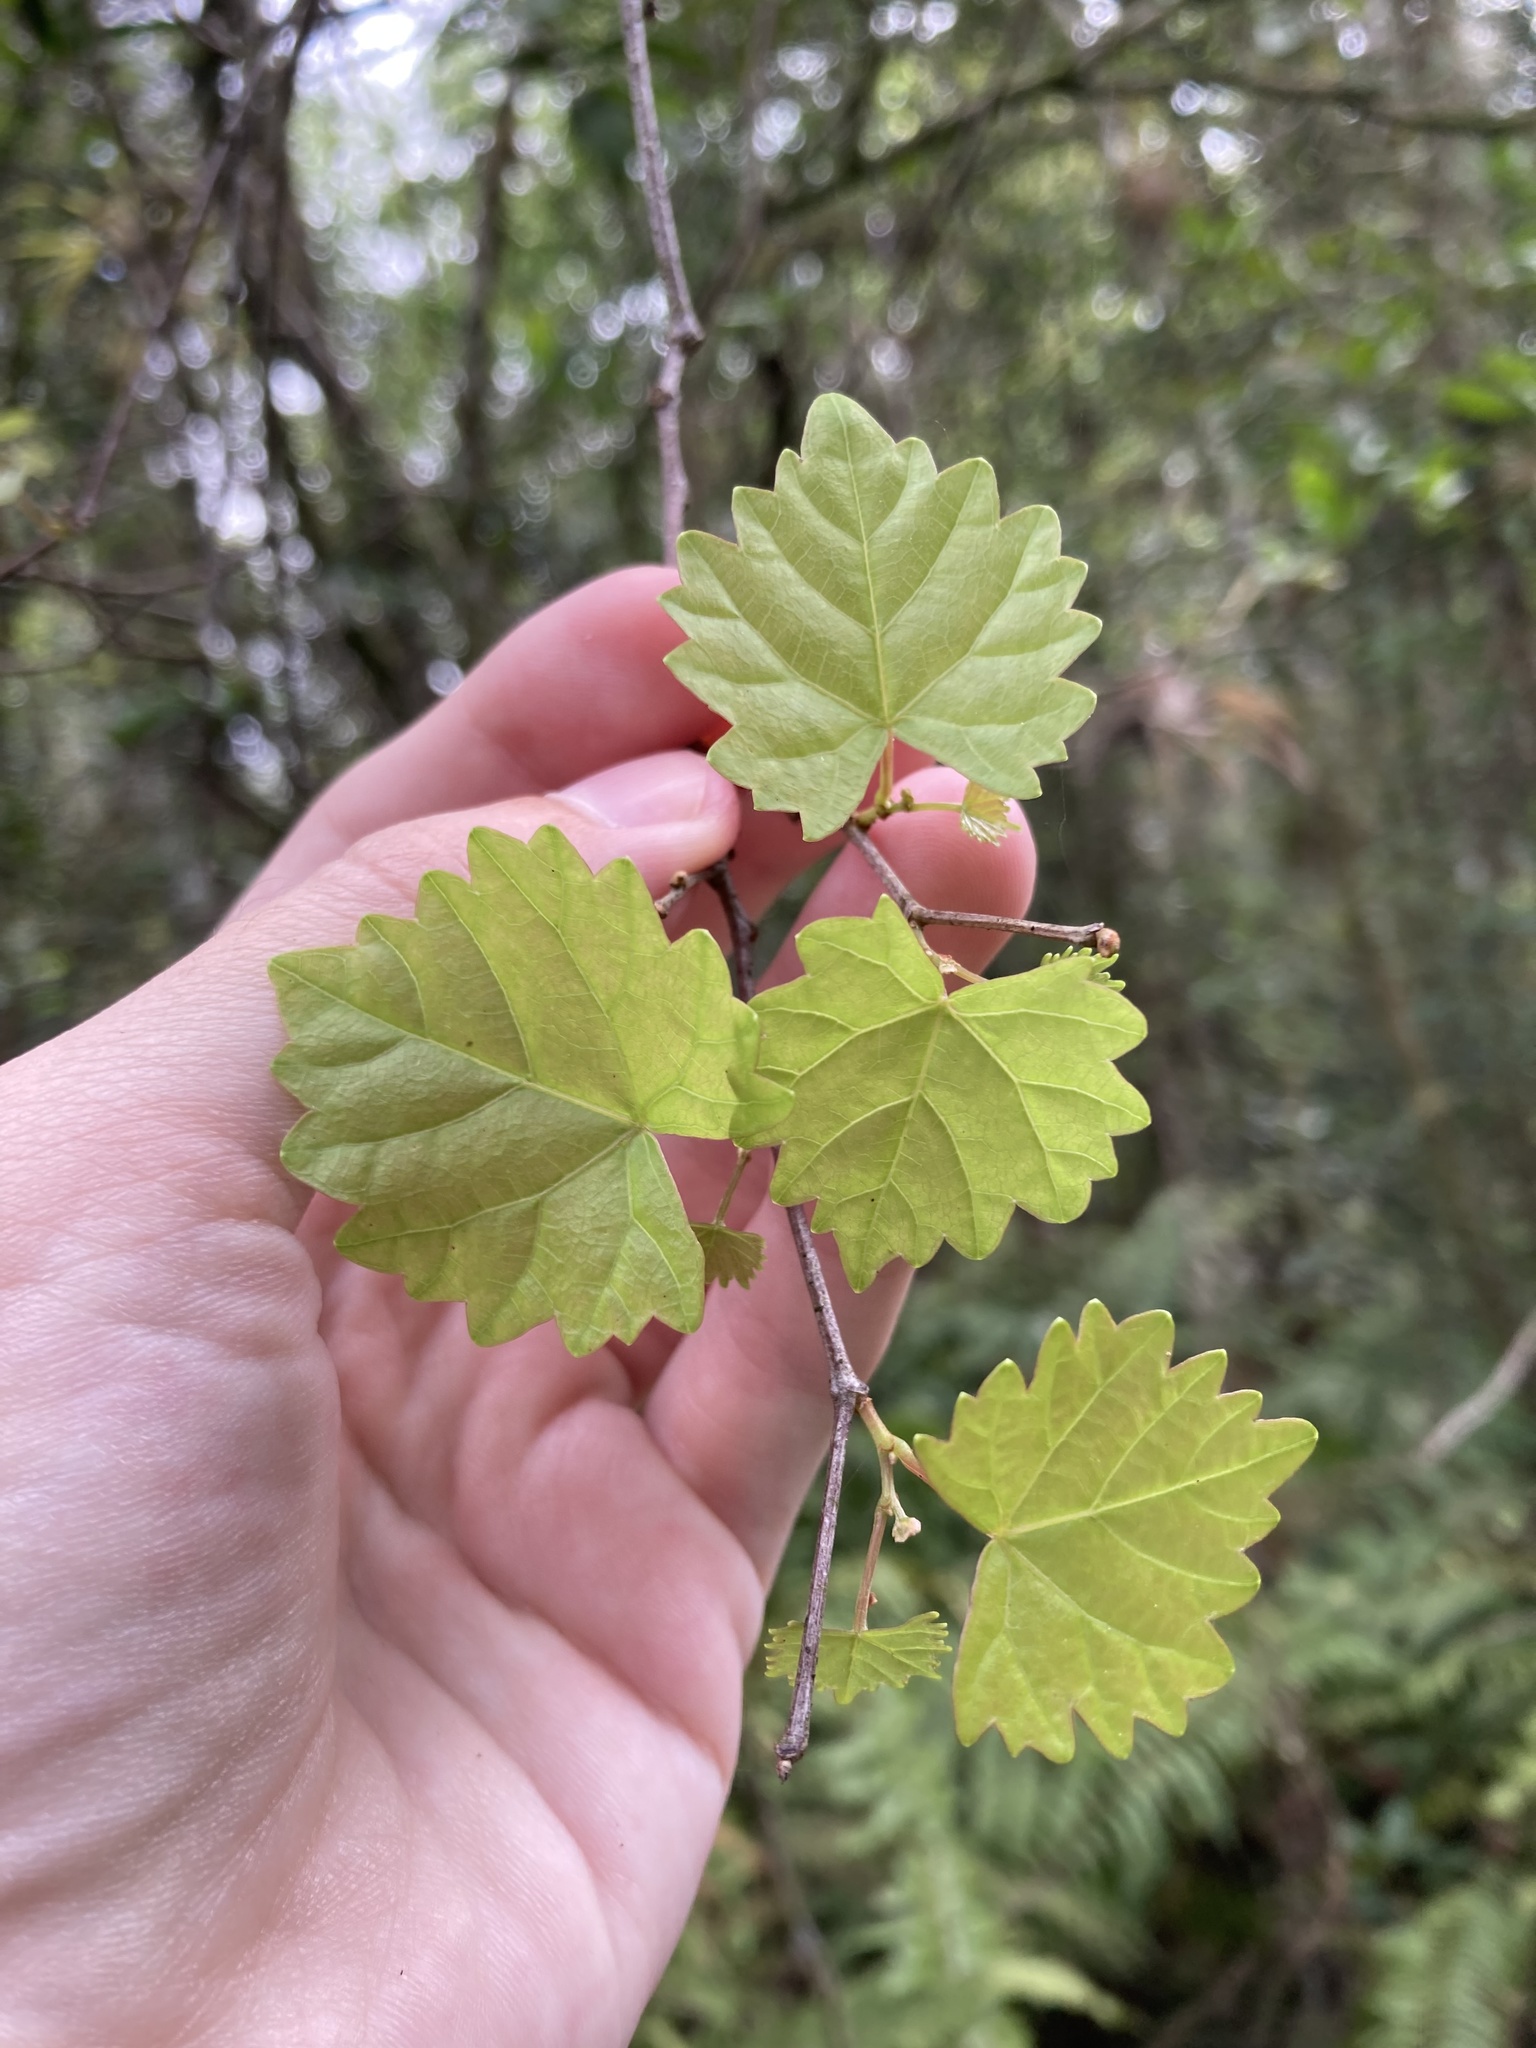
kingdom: Plantae
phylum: Tracheophyta
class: Magnoliopsida
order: Vitales
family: Vitaceae
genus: Vitis
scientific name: Vitis rotundifolia
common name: Muscadine grape
